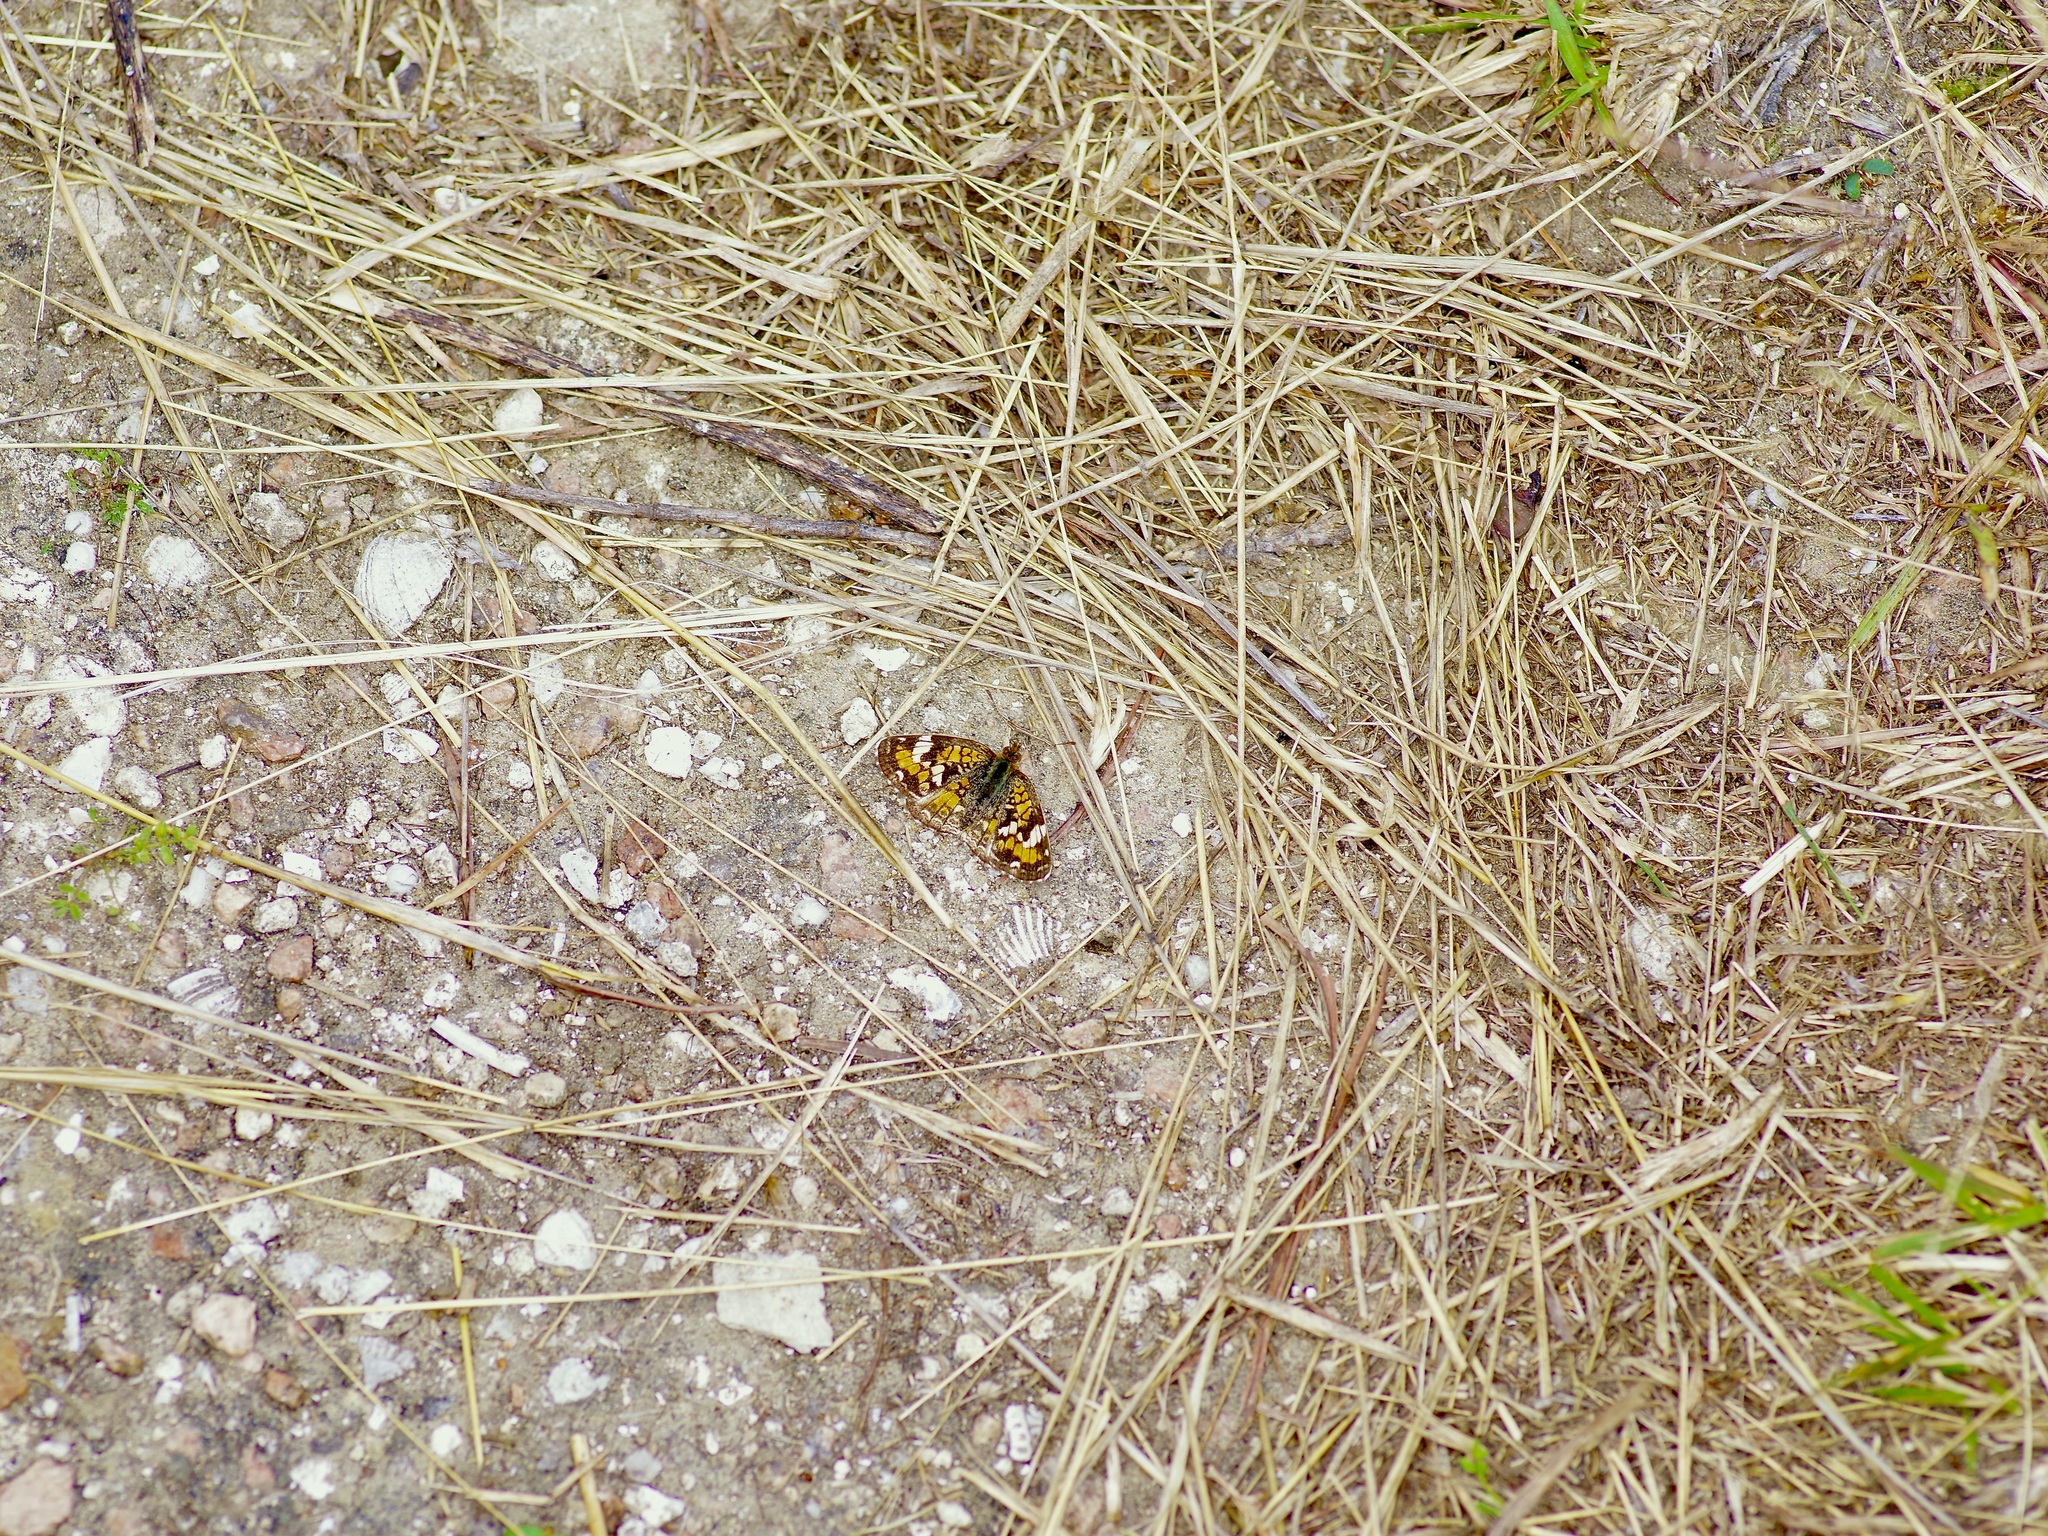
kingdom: Animalia
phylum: Arthropoda
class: Insecta
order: Lepidoptera
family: Nymphalidae
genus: Phyciodes
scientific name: Phyciodes phaon
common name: Phaon crescent
